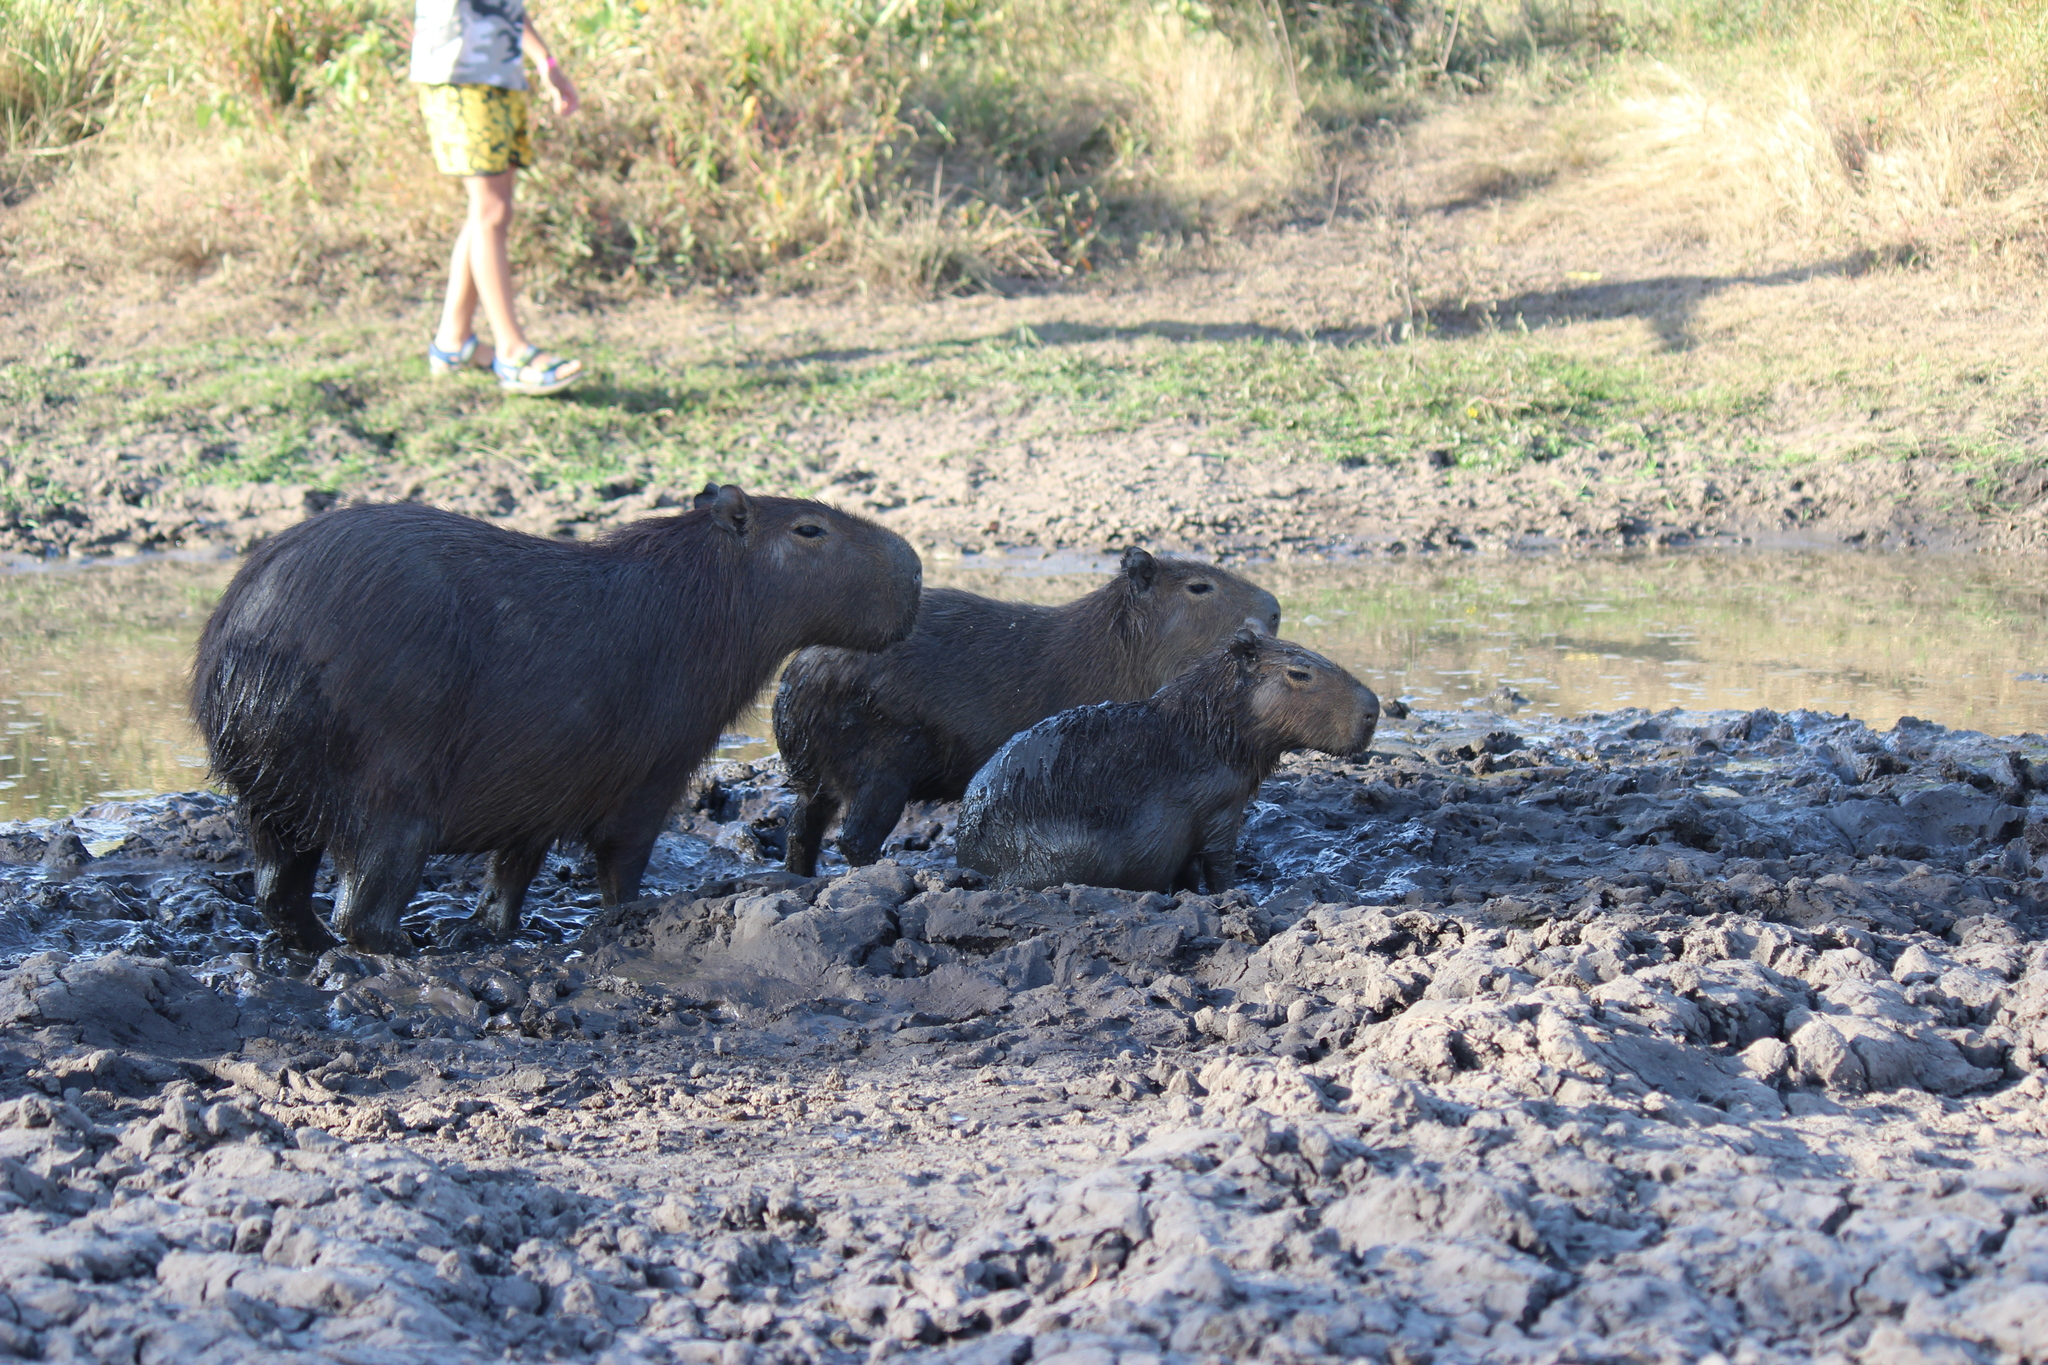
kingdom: Animalia
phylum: Chordata
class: Mammalia
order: Rodentia
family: Caviidae
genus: Hydrochoerus
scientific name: Hydrochoerus hydrochaeris
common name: Capybara
